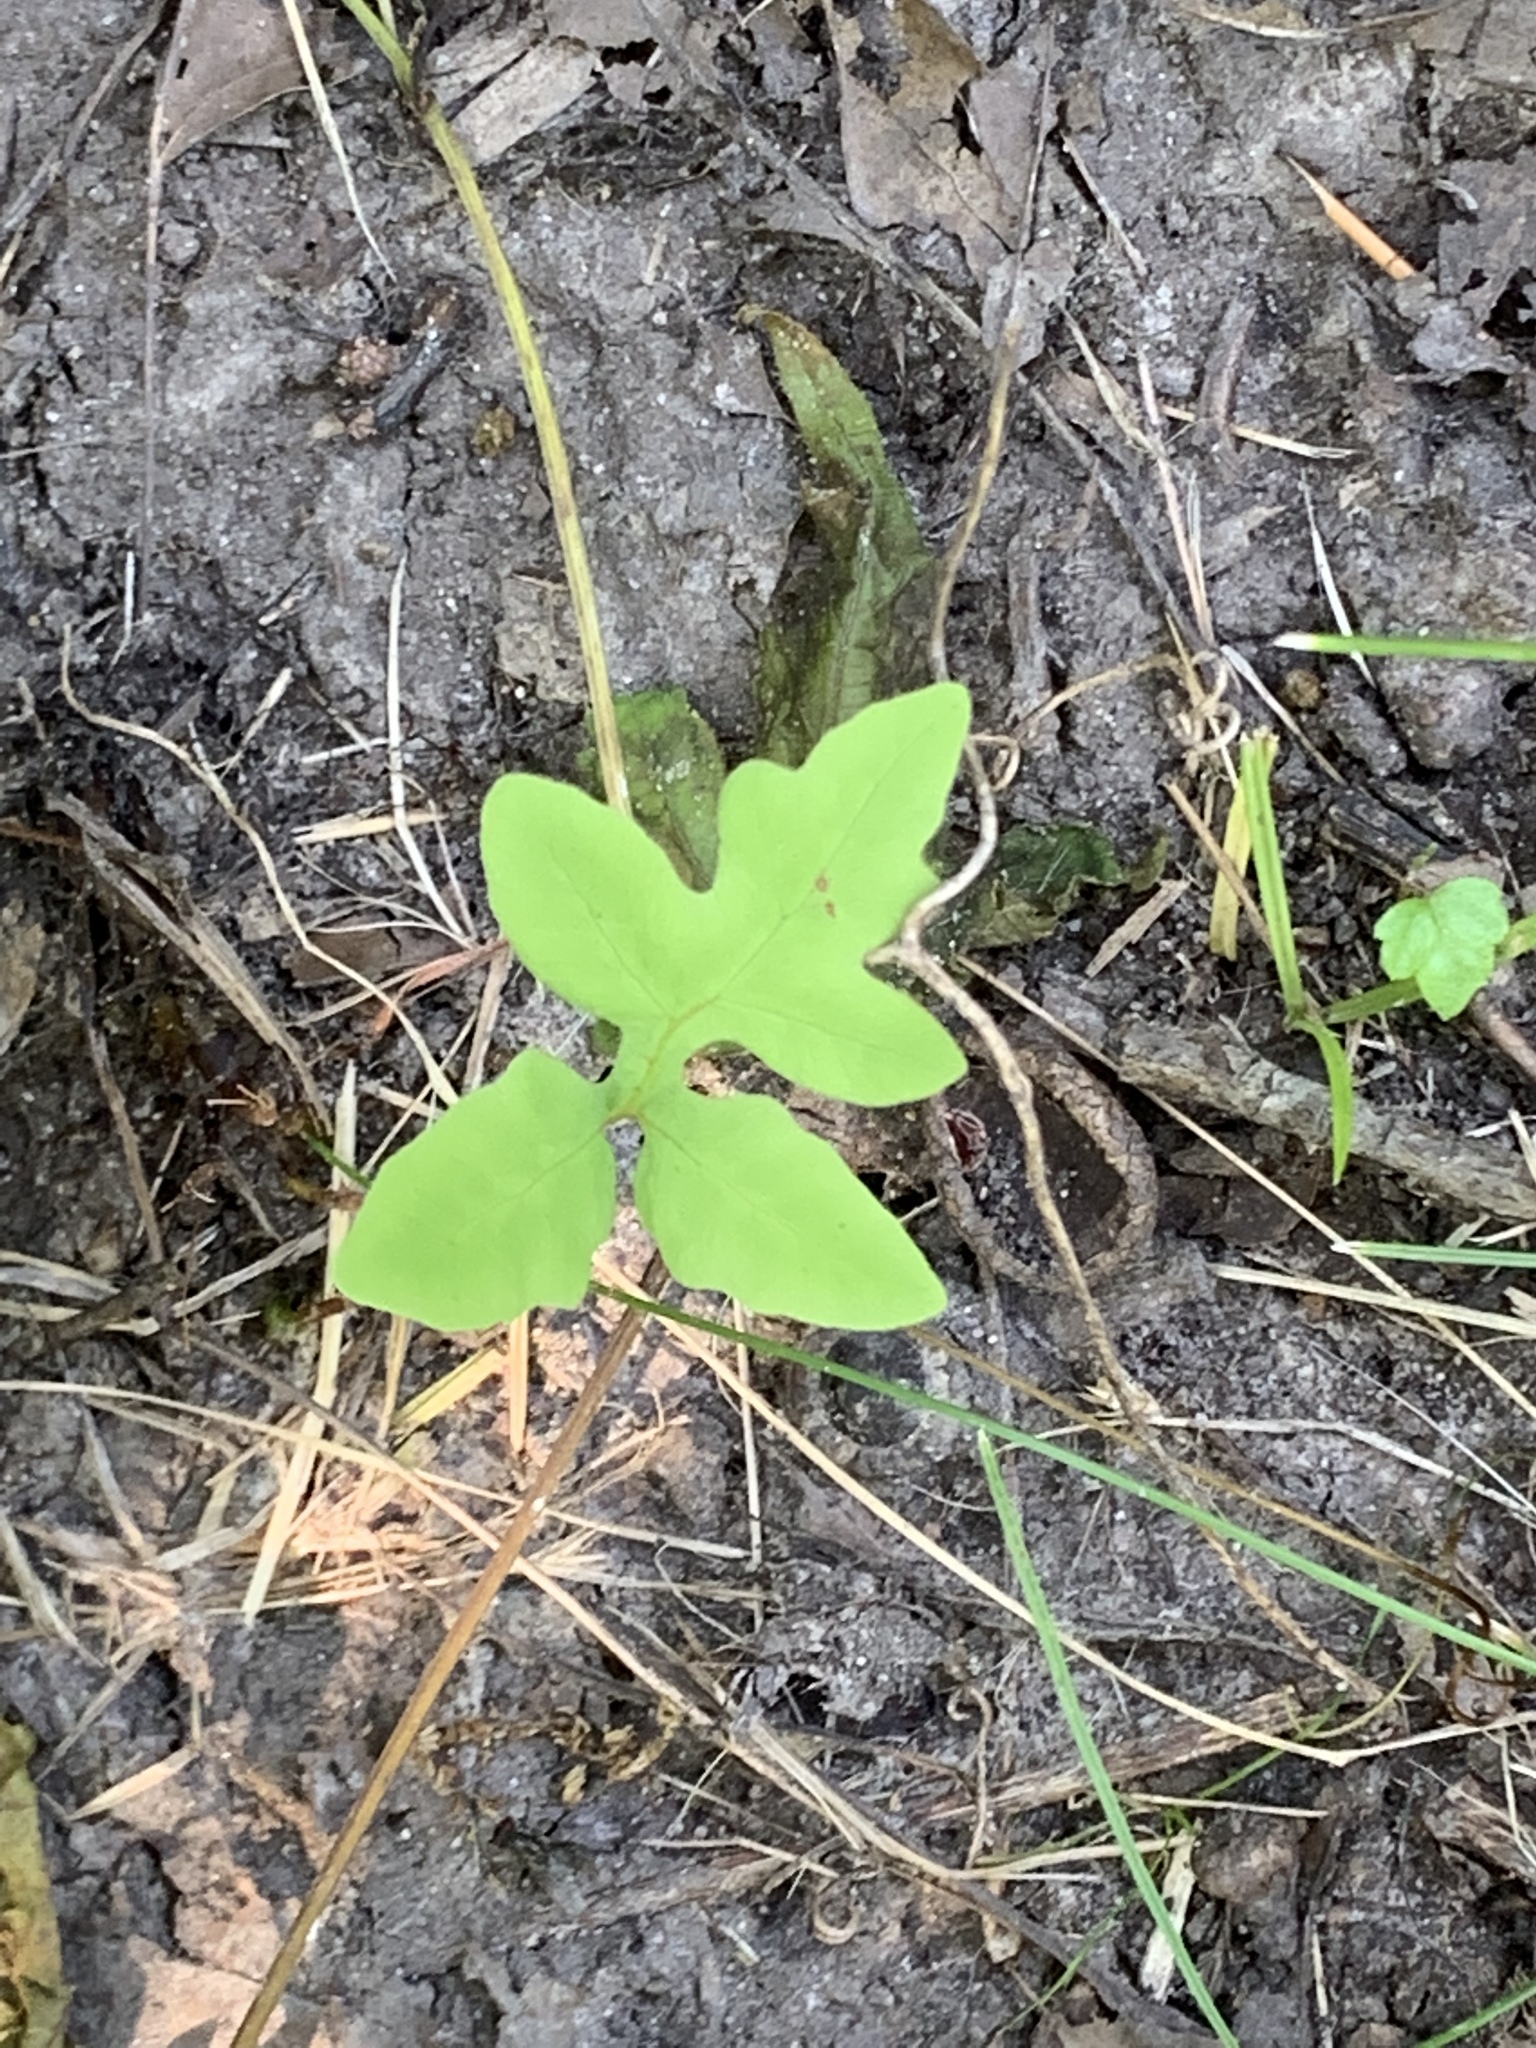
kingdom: Plantae
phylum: Tracheophyta
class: Polypodiopsida
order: Polypodiales
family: Onocleaceae
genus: Onoclea
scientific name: Onoclea sensibilis
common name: Sensitive fern
